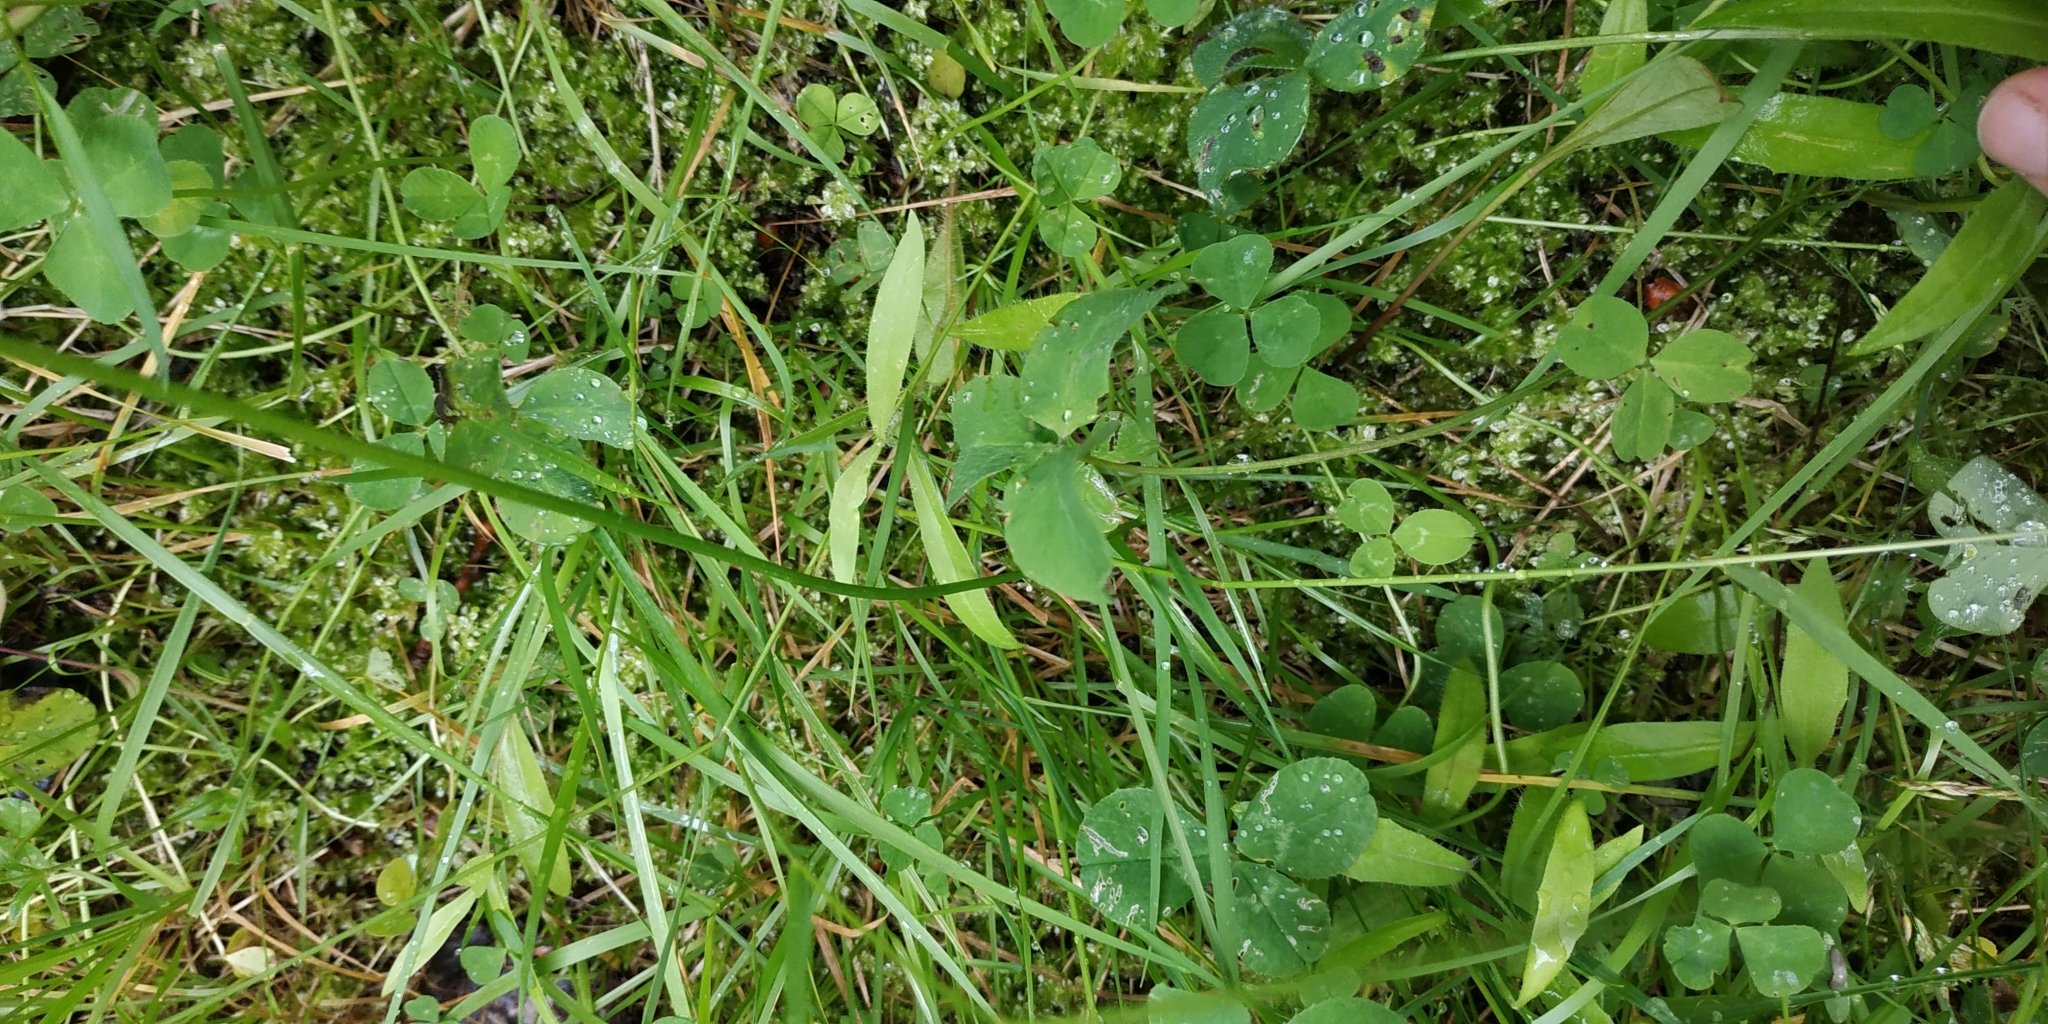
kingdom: Plantae
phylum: Tracheophyta
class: Magnoliopsida
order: Fabales
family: Fabaceae
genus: Trifolium
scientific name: Trifolium repens
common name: White clover
